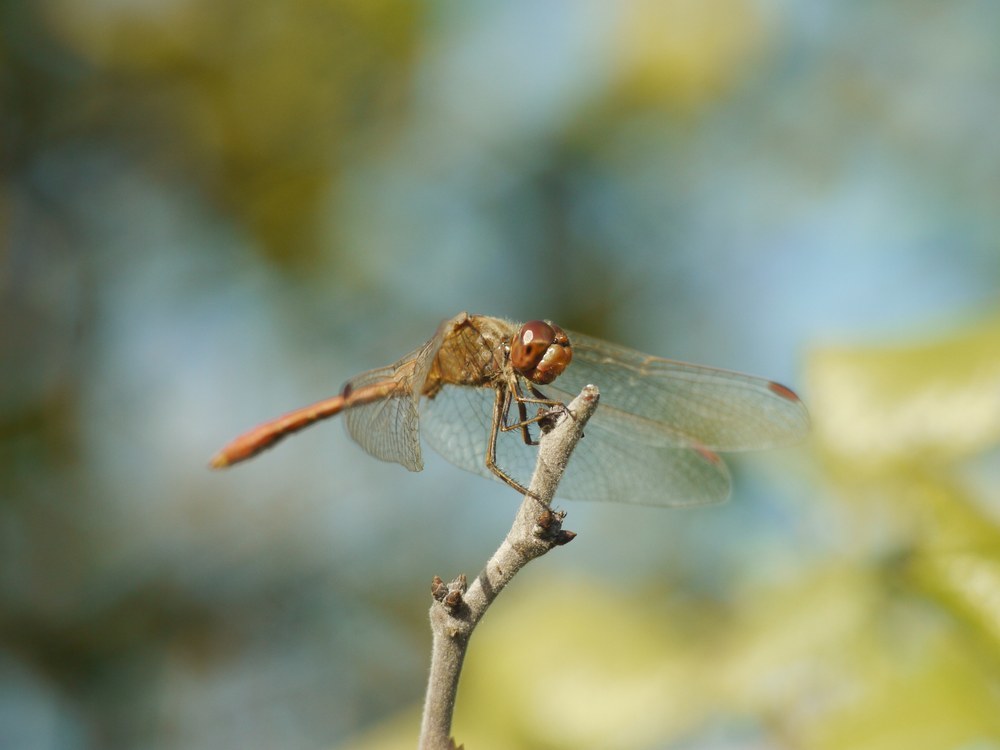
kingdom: Animalia
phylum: Arthropoda
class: Insecta
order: Odonata
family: Libellulidae
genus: Sympetrum
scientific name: Sympetrum meridionale
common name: Southern darter
